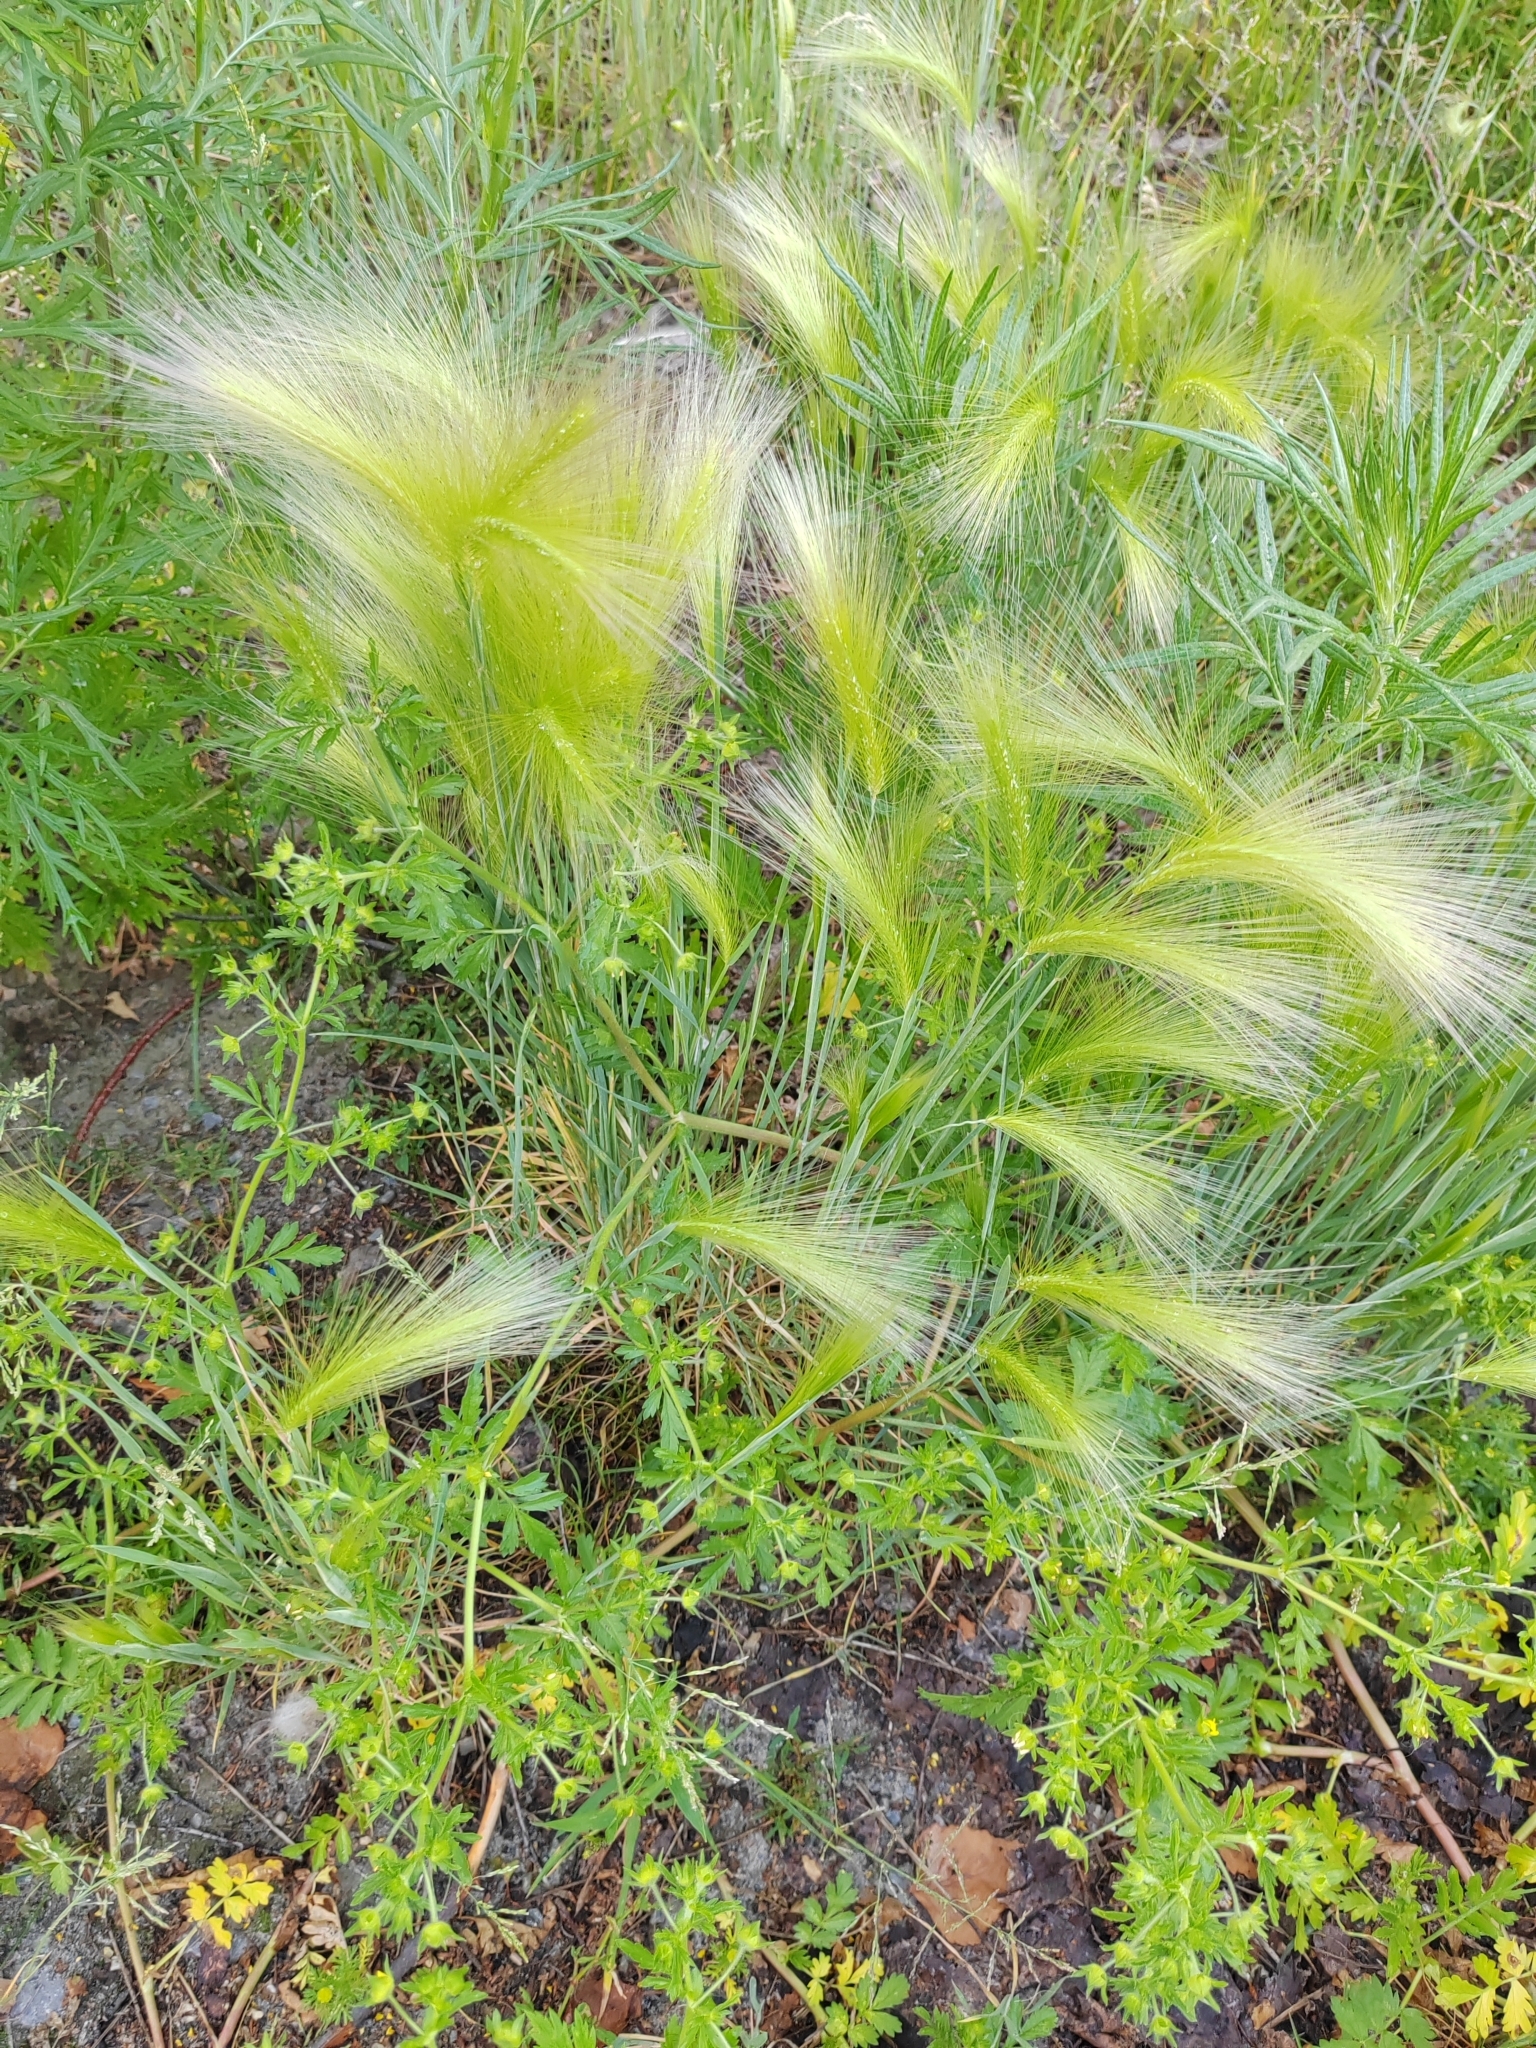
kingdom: Plantae
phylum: Tracheophyta
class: Liliopsida
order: Poales
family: Poaceae
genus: Hordeum
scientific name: Hordeum jubatum
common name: Foxtail barley
